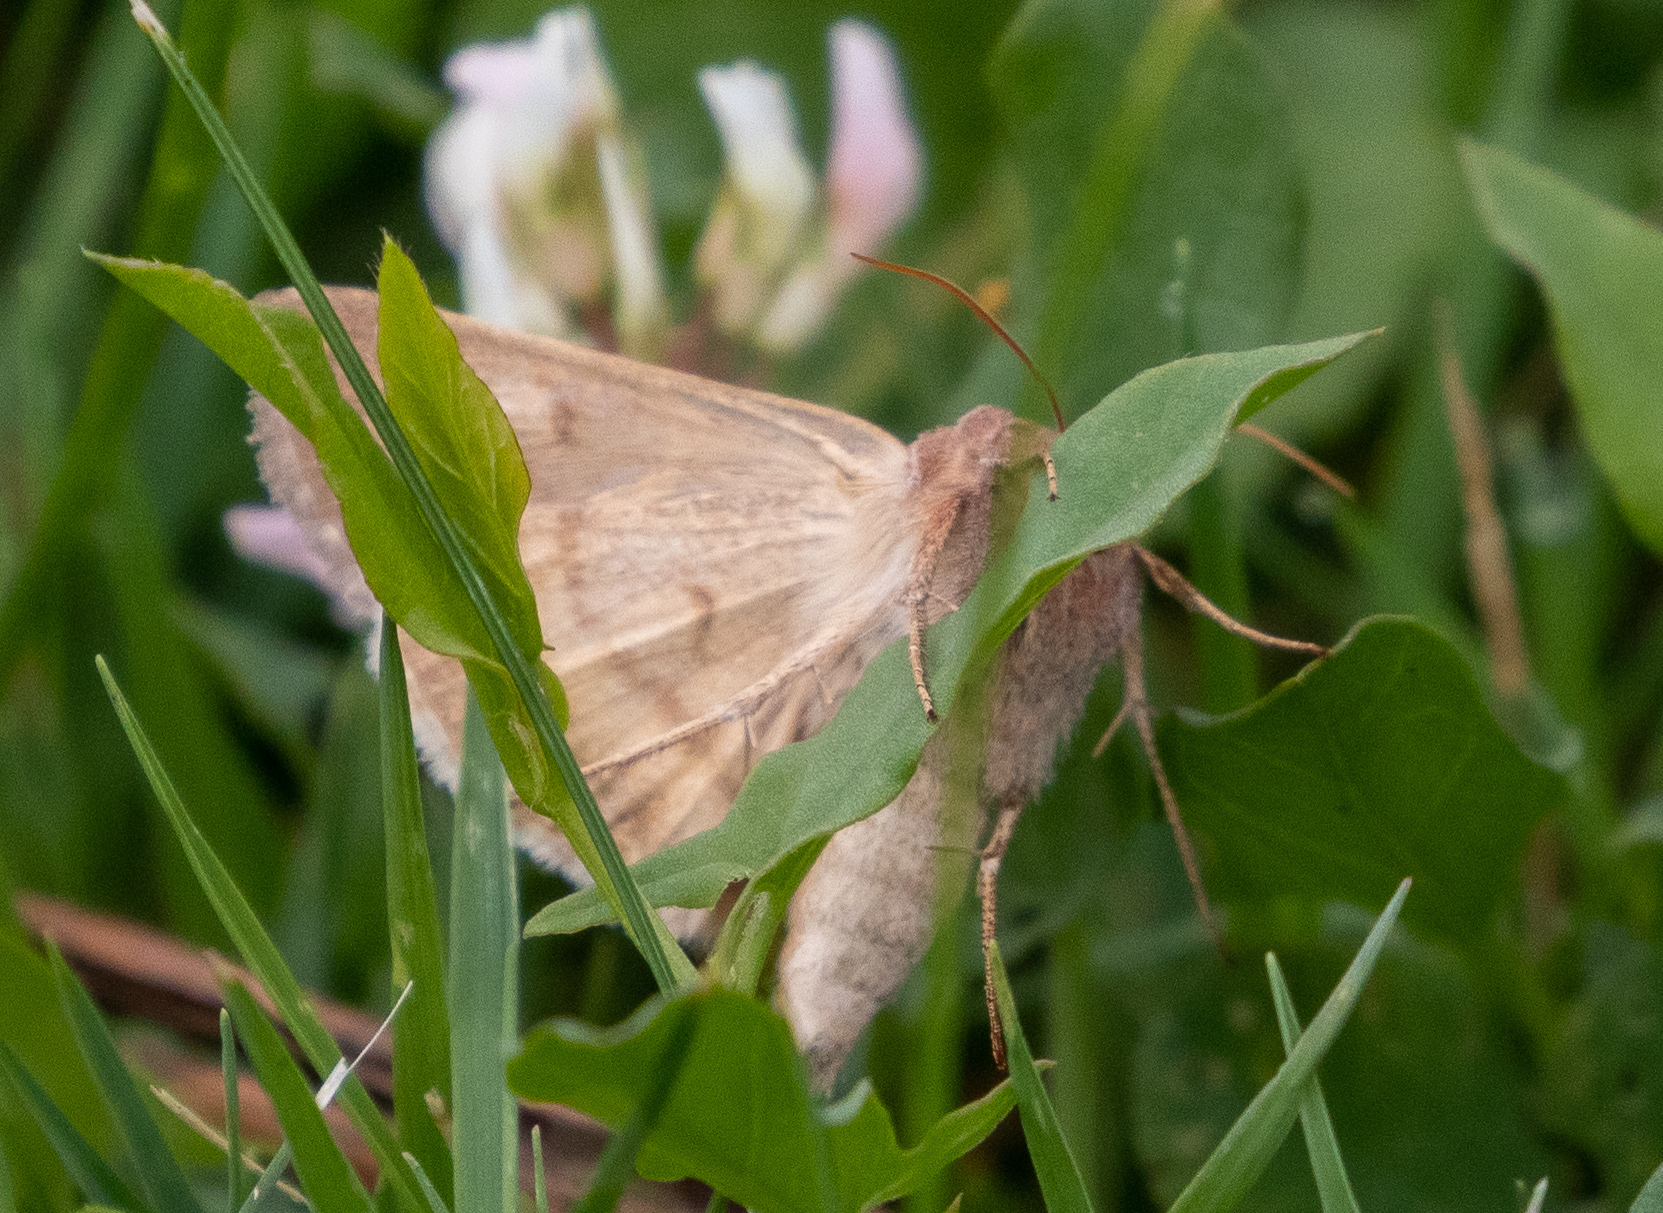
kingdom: Animalia
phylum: Arthropoda
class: Insecta
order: Lepidoptera
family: Noctuidae
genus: Anagrapha
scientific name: Anagrapha falcifera
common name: Celery looper
